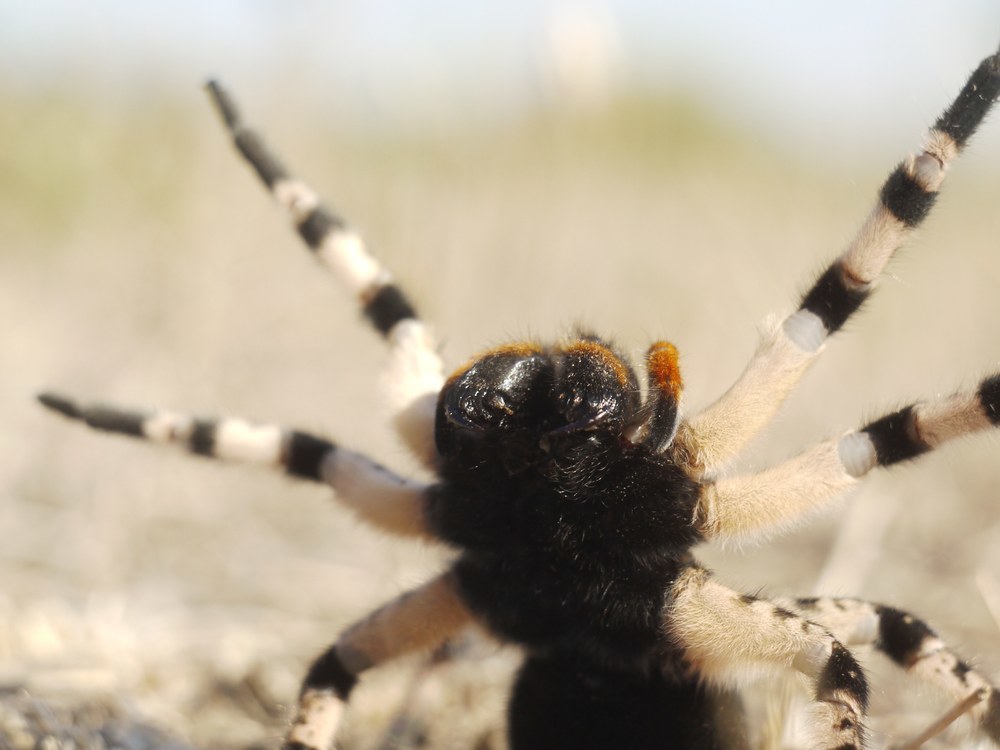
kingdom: Animalia
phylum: Arthropoda
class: Arachnida
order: Araneae
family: Lycosidae
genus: Lycosa
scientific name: Lycosa singoriensis
